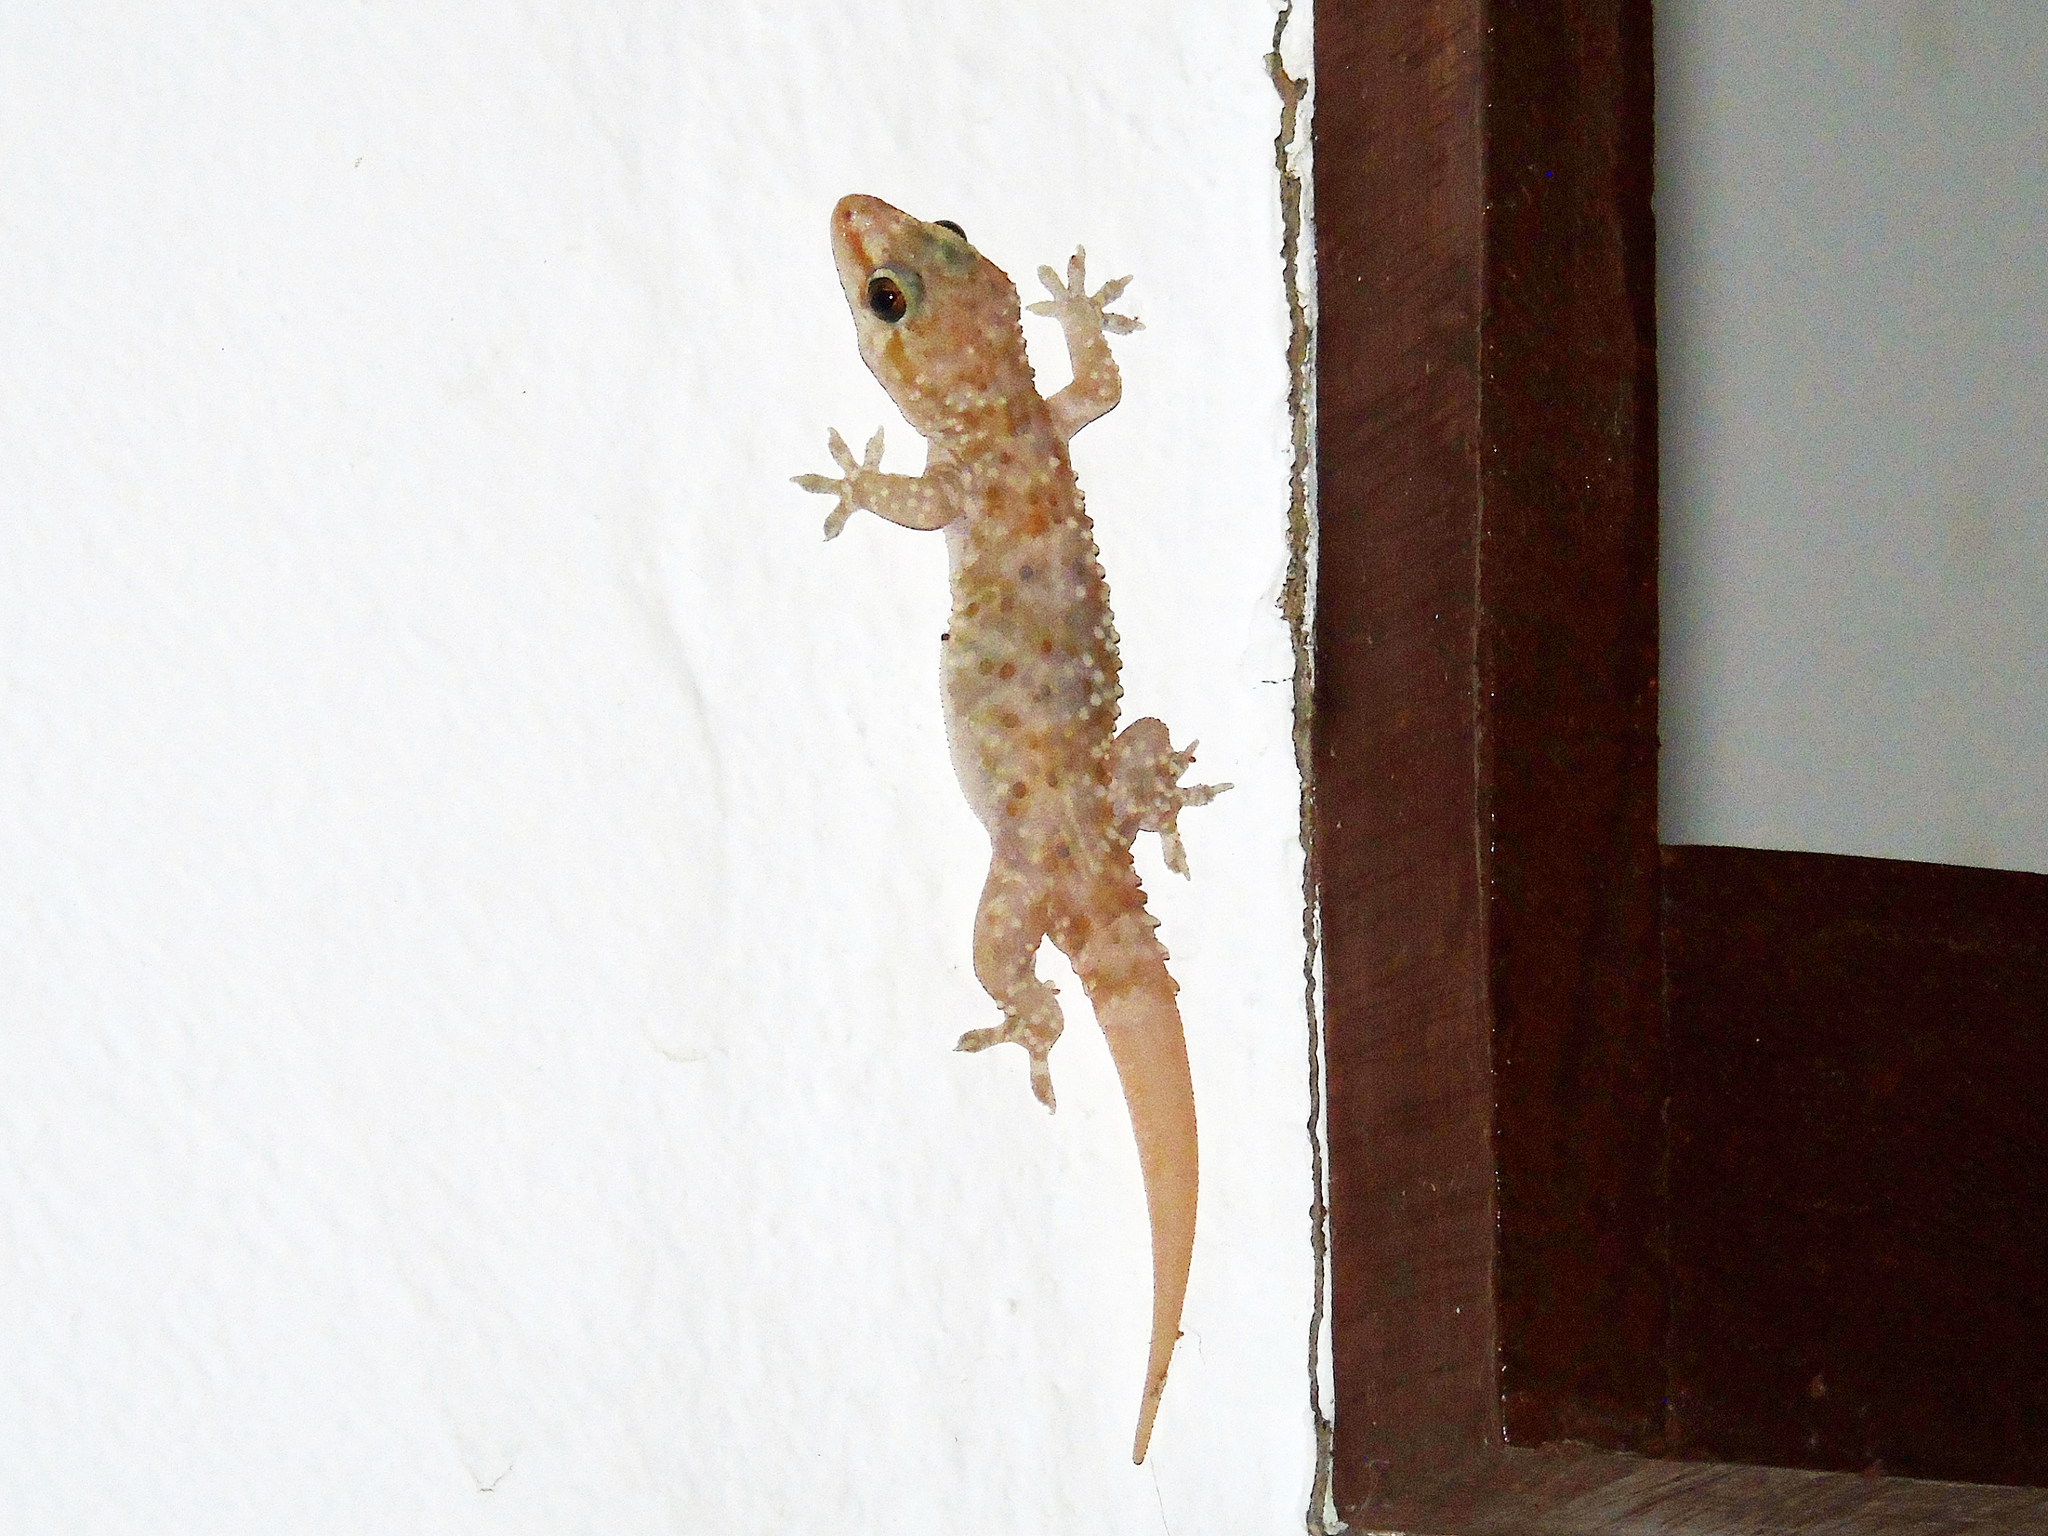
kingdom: Animalia
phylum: Chordata
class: Squamata
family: Gekkonidae
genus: Hemidactylus
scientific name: Hemidactylus turcicus
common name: Turkish gecko
